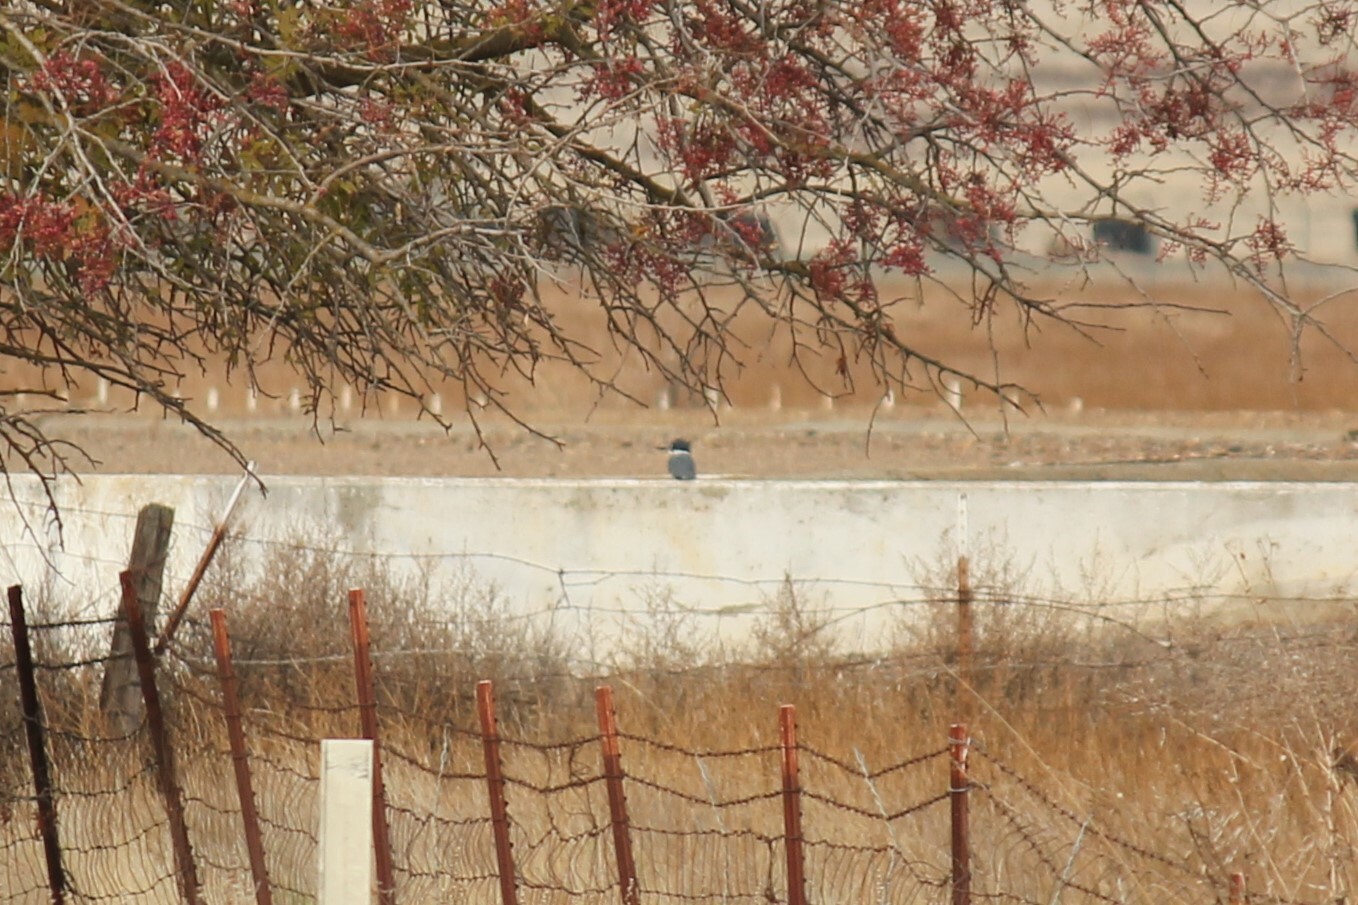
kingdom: Animalia
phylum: Chordata
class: Aves
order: Coraciiformes
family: Alcedinidae
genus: Megaceryle
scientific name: Megaceryle alcyon
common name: Belted kingfisher
